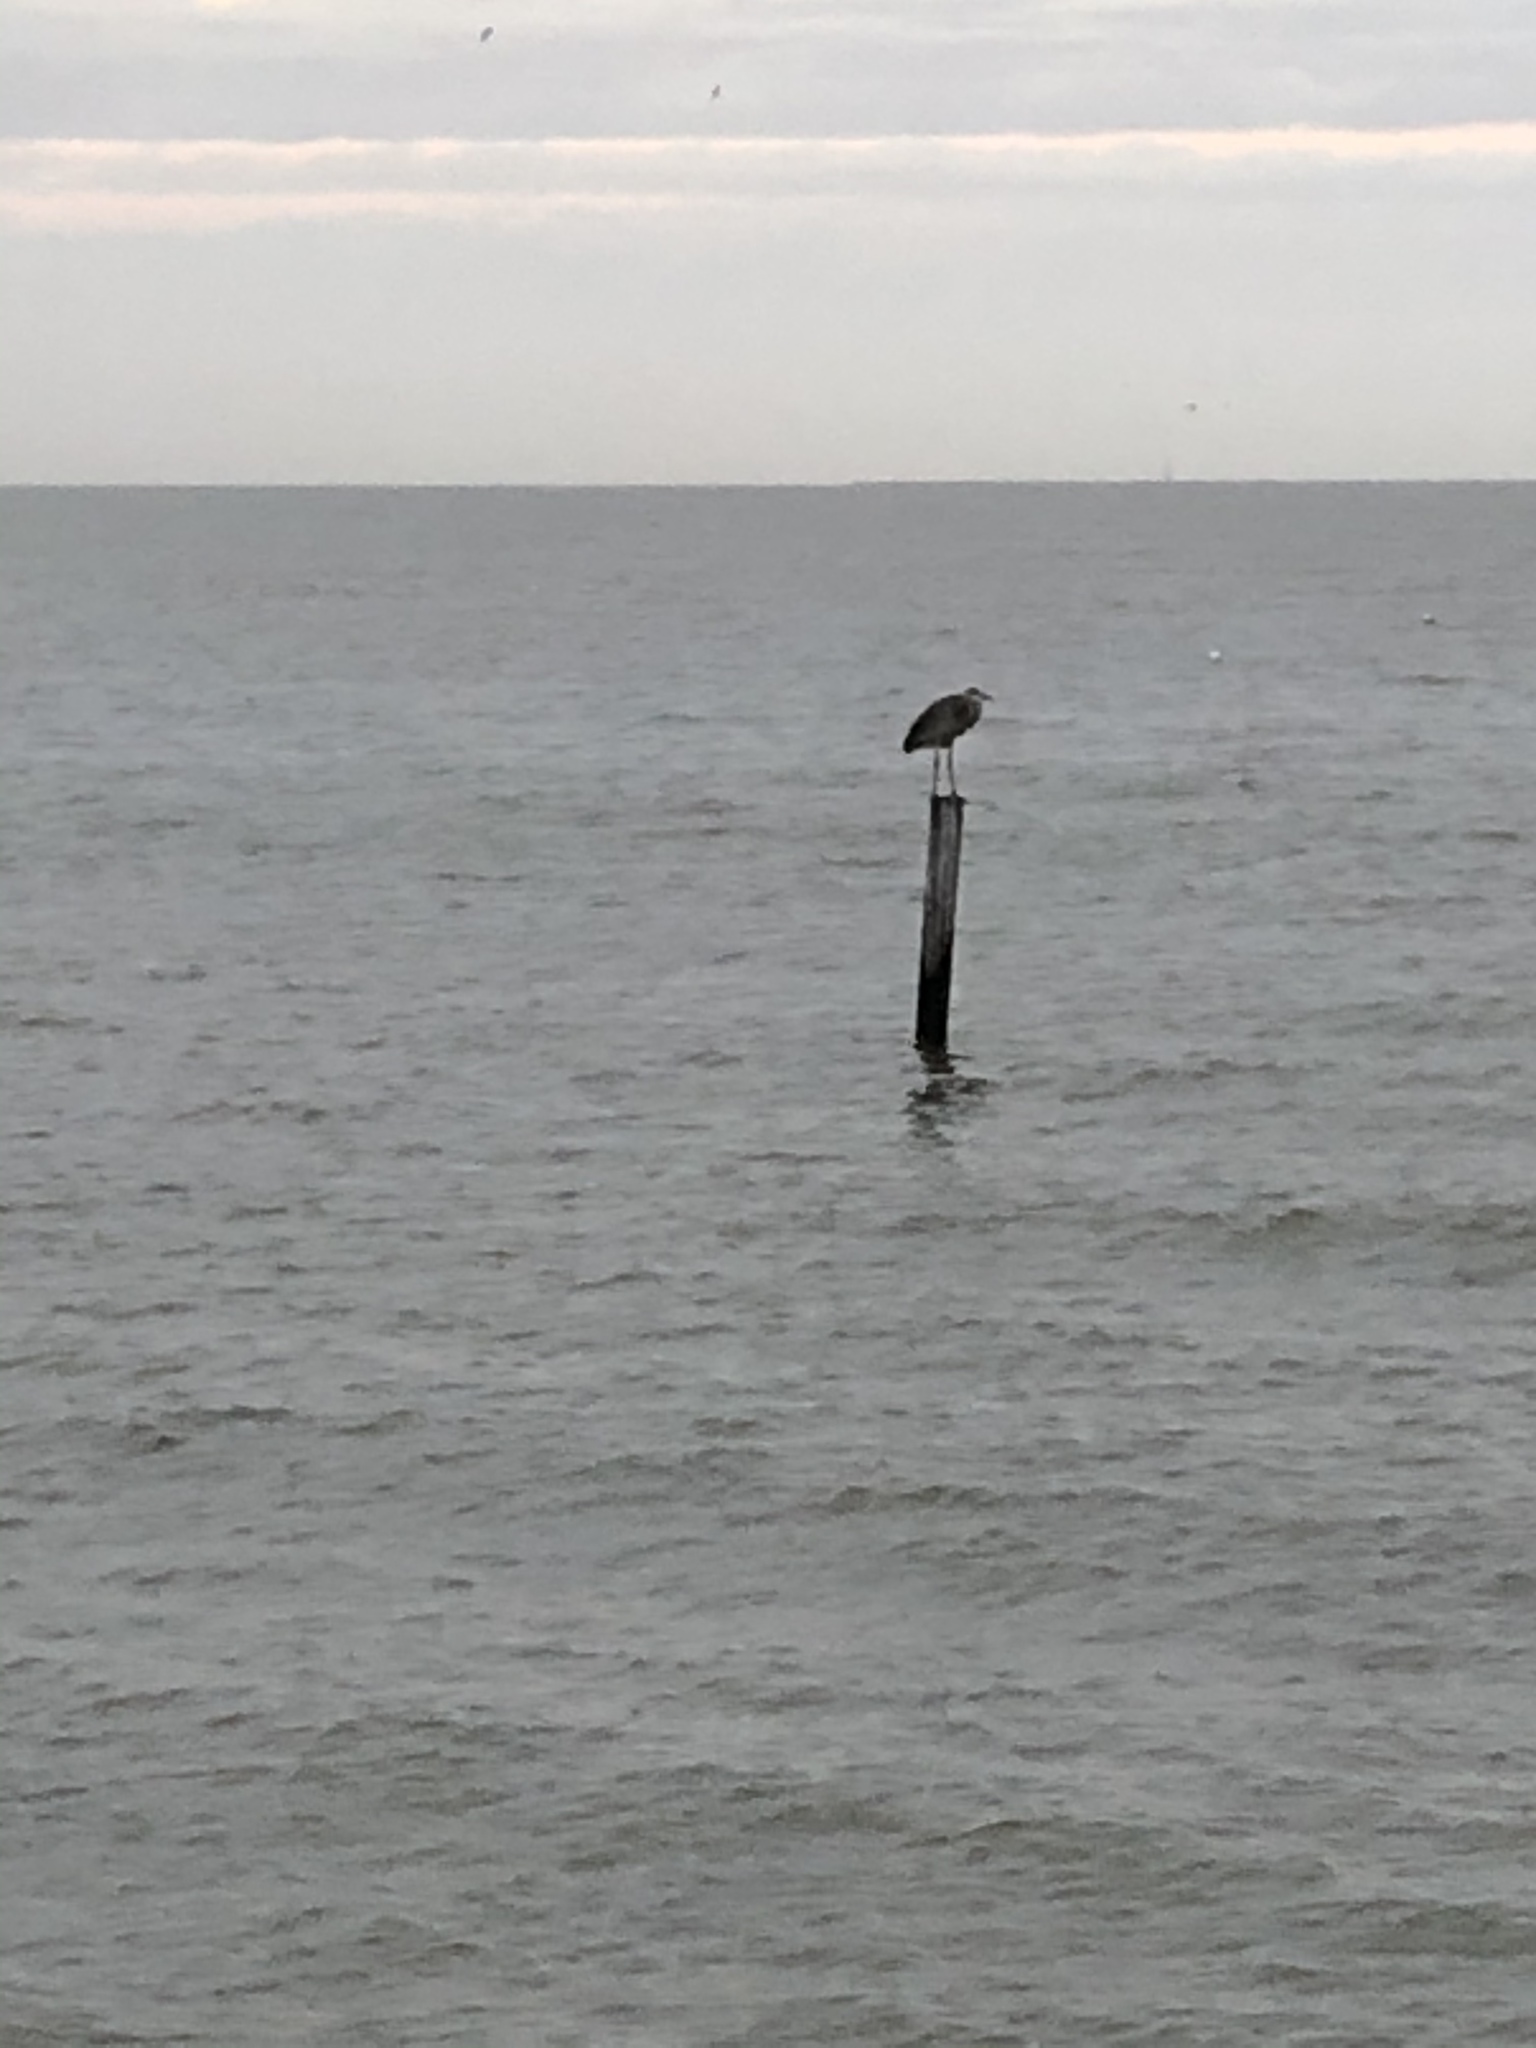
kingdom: Animalia
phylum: Chordata
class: Aves
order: Pelecaniformes
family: Ardeidae
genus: Ardea
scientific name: Ardea herodias
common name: Great blue heron
